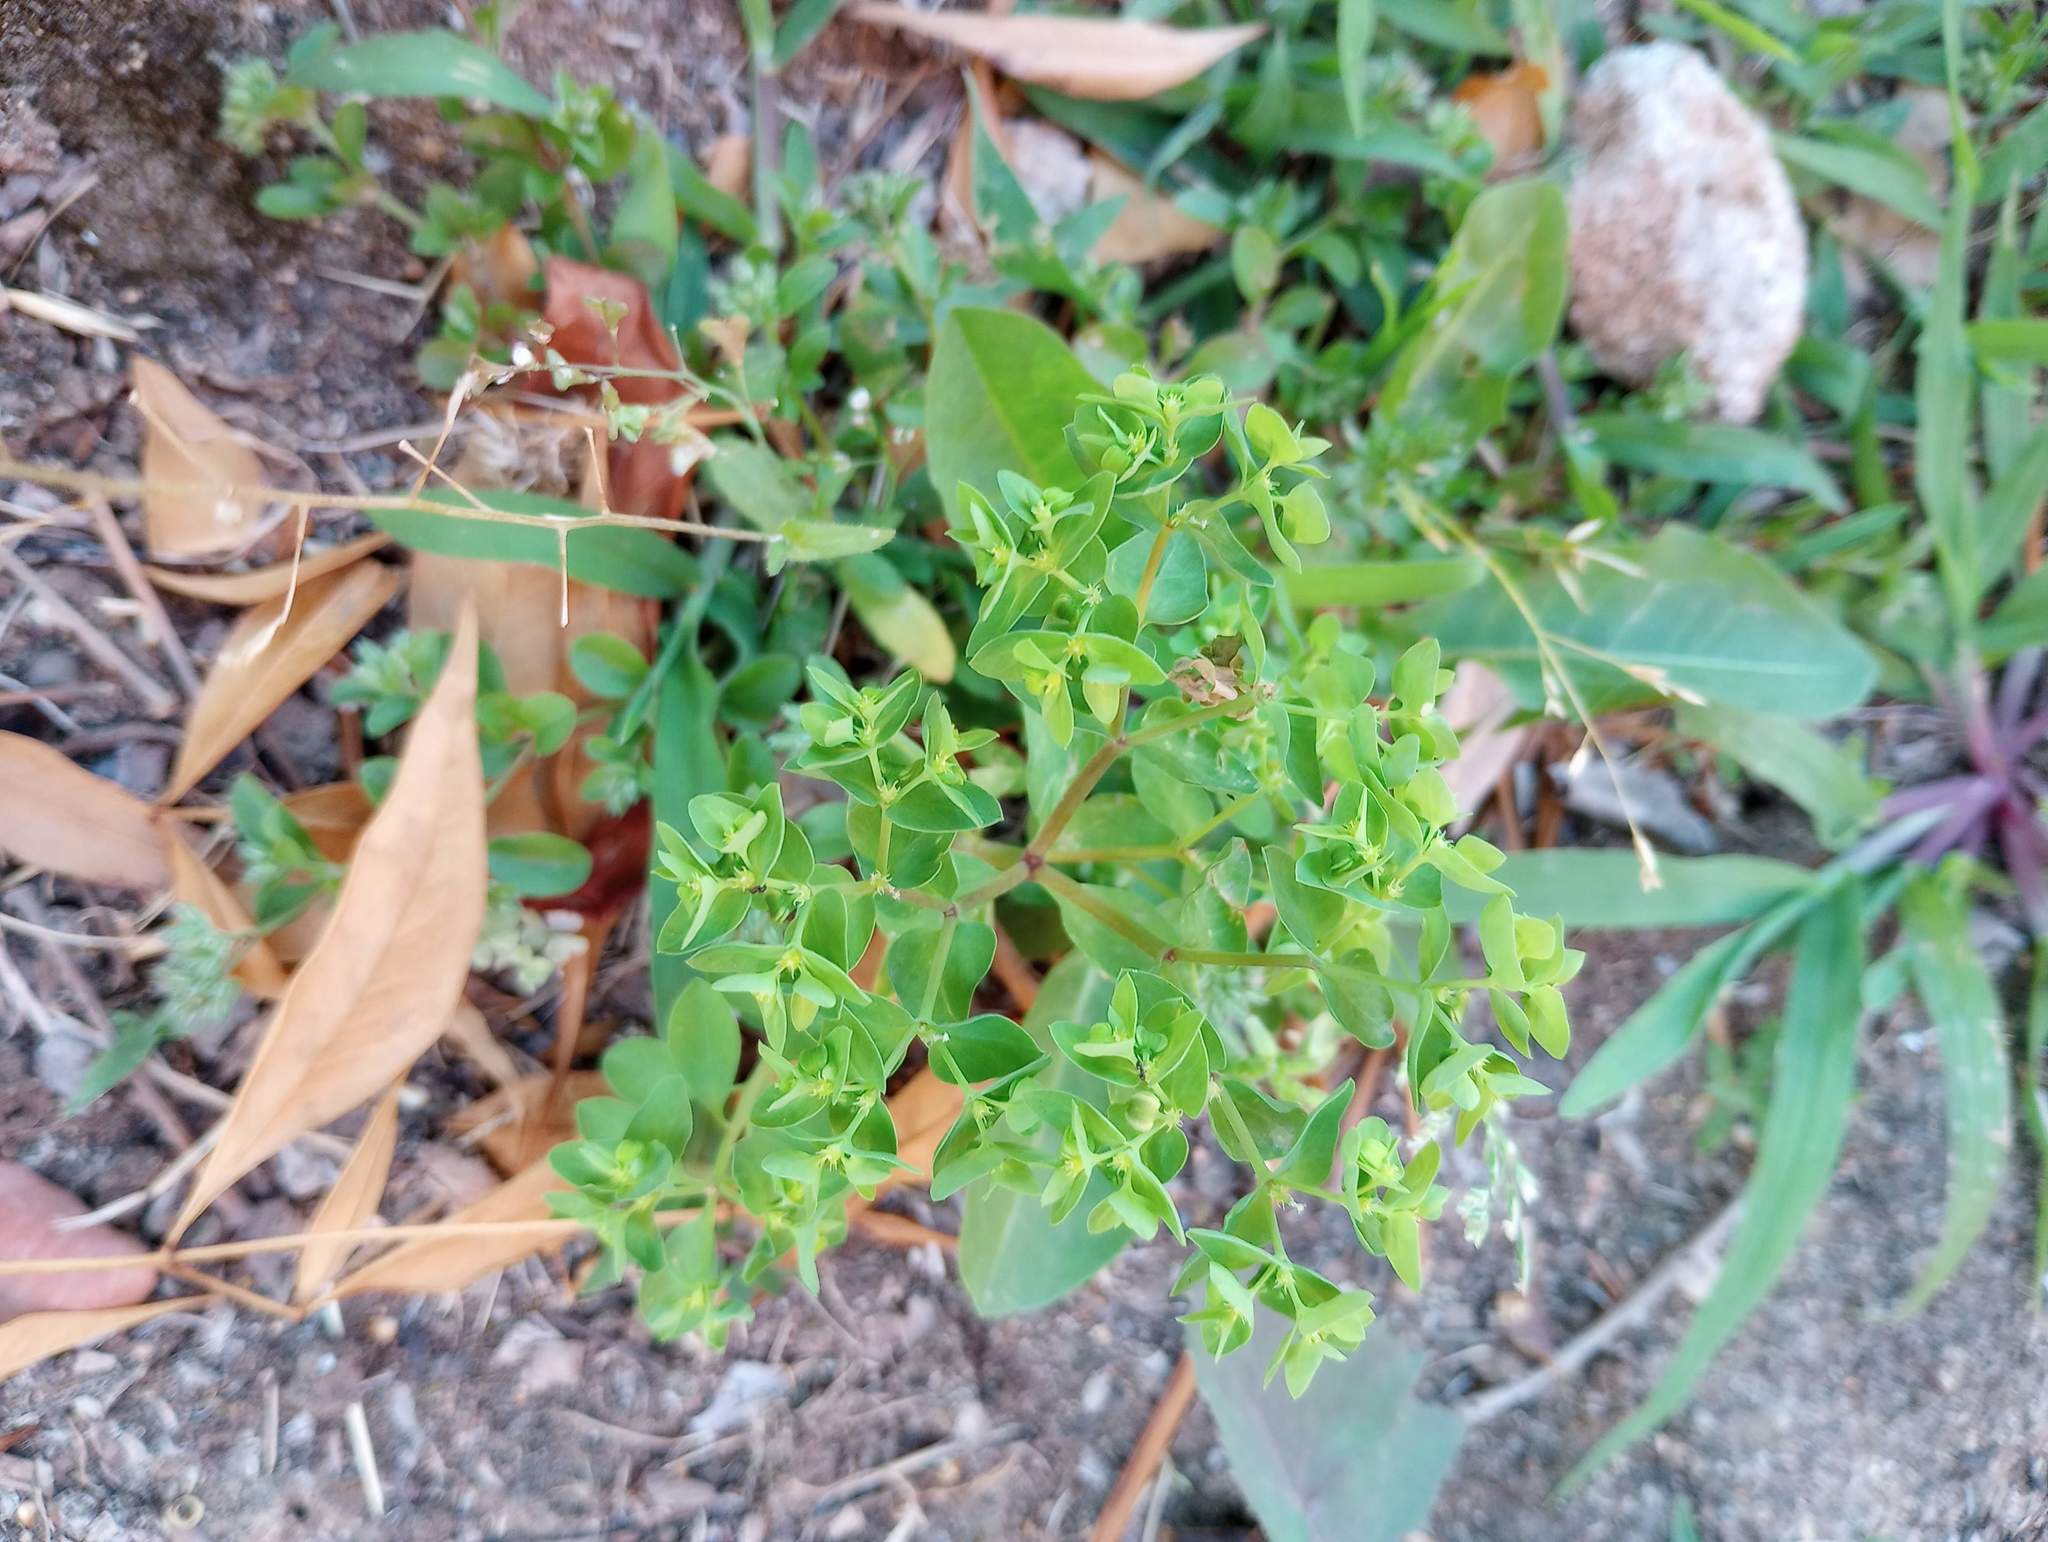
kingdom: Plantae
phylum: Tracheophyta
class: Magnoliopsida
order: Malpighiales
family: Euphorbiaceae
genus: Euphorbia
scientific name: Euphorbia peplus
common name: Petty spurge
